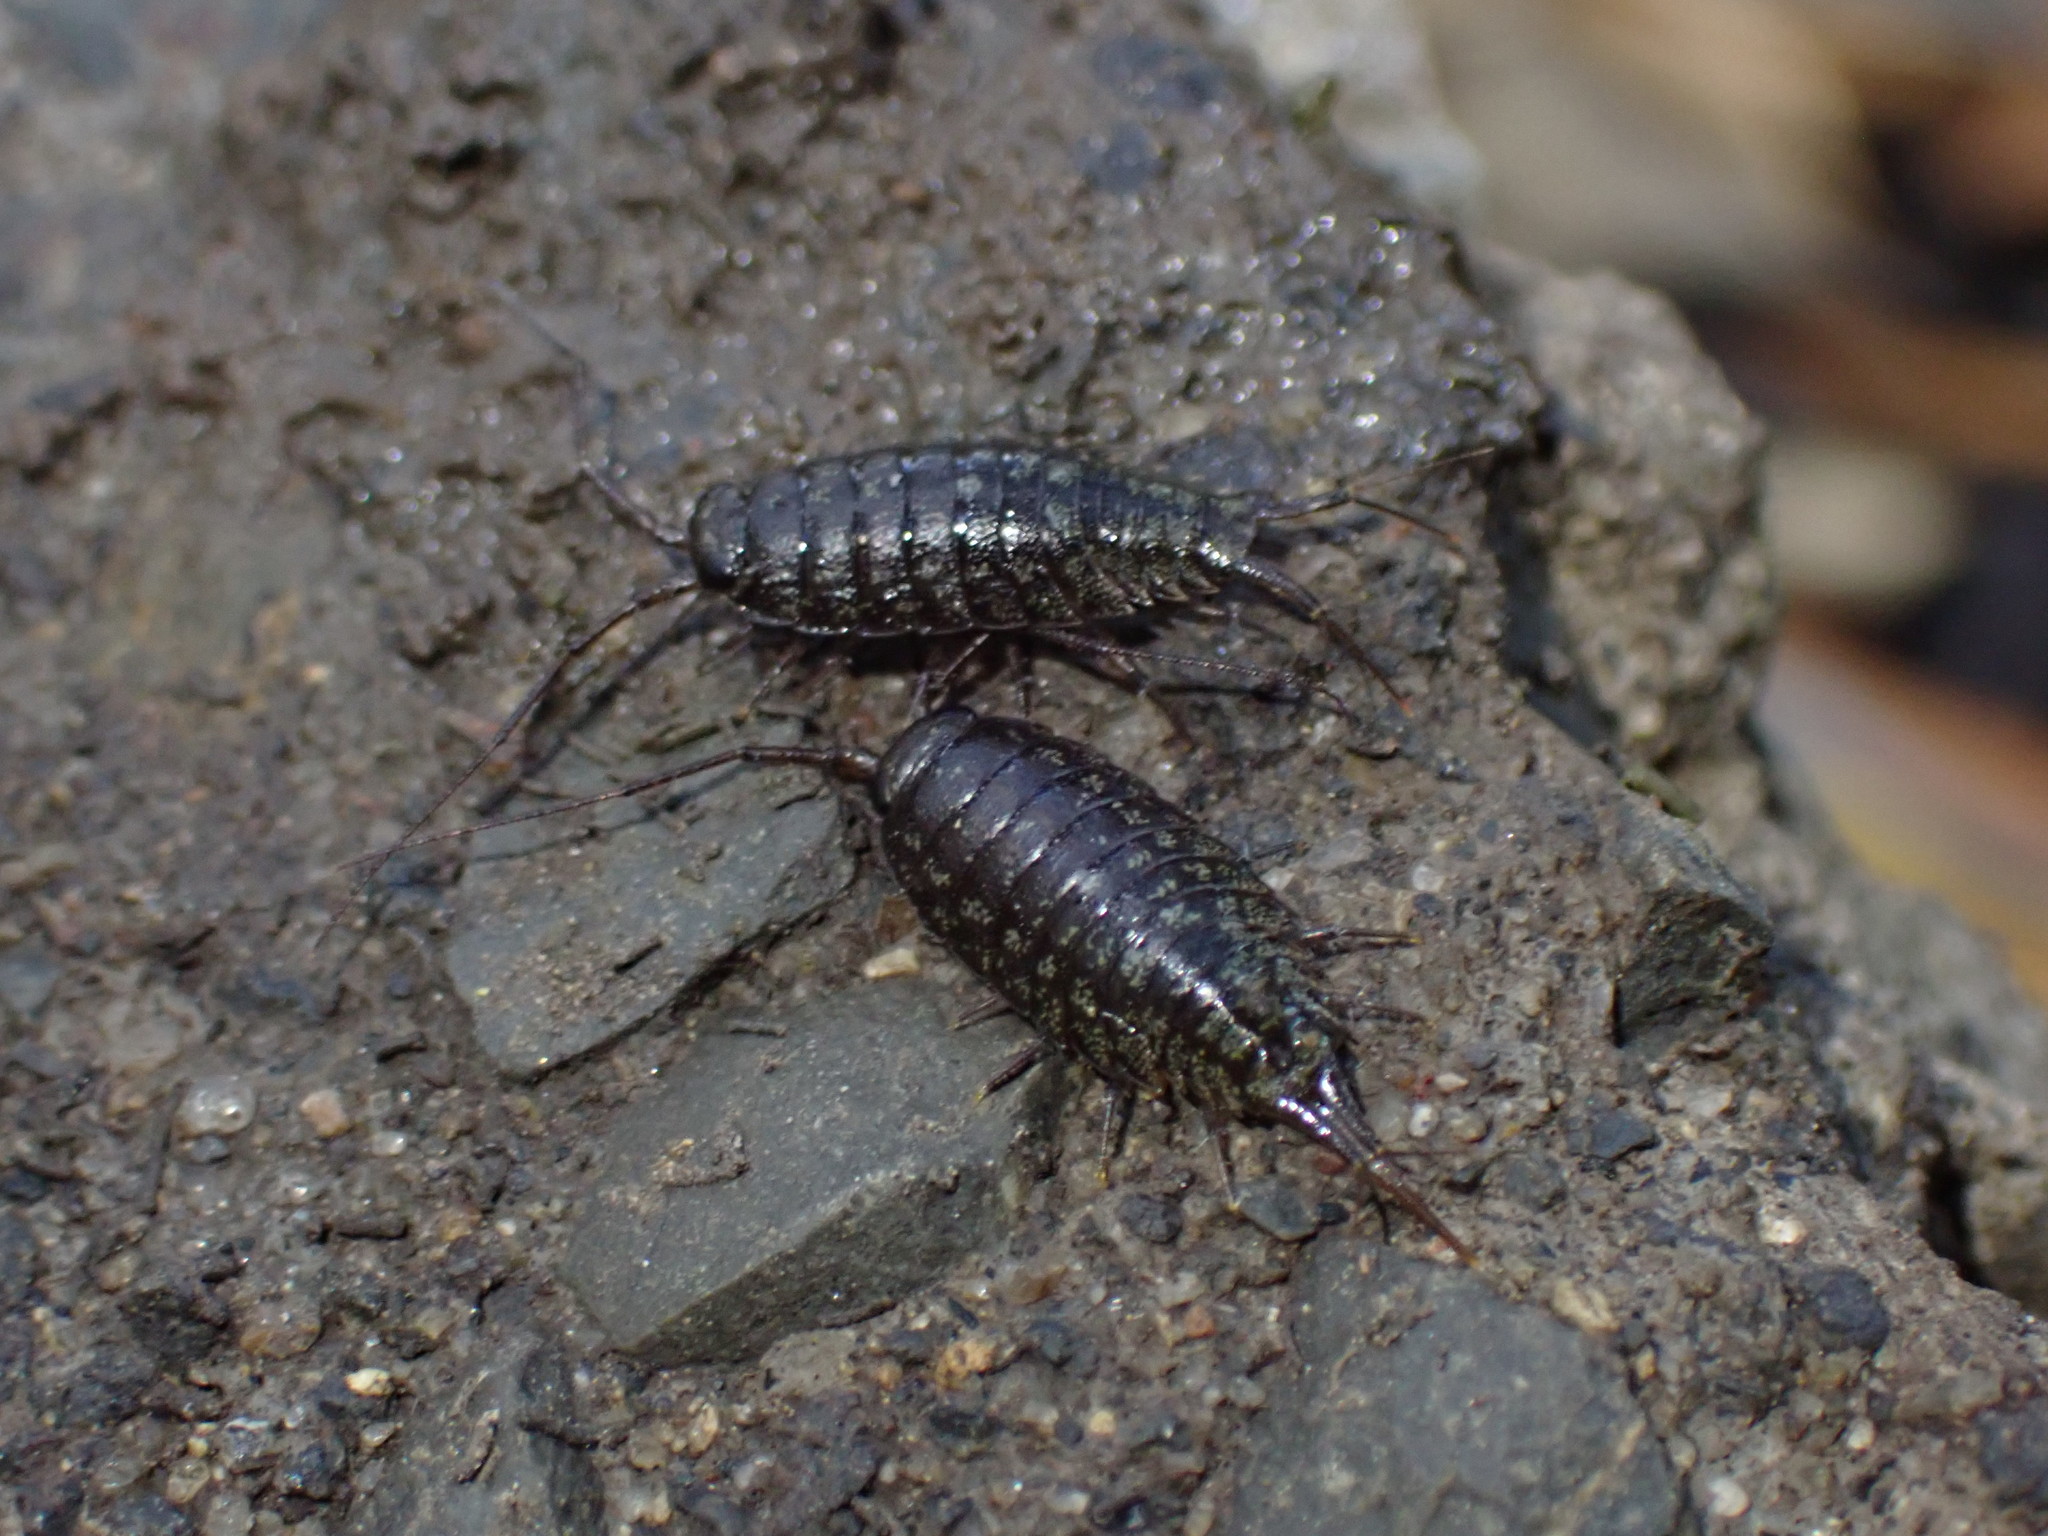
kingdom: Animalia
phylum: Arthropoda
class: Malacostraca
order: Isopoda
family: Ligiidae
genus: Ligia
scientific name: Ligia novizealandiae
